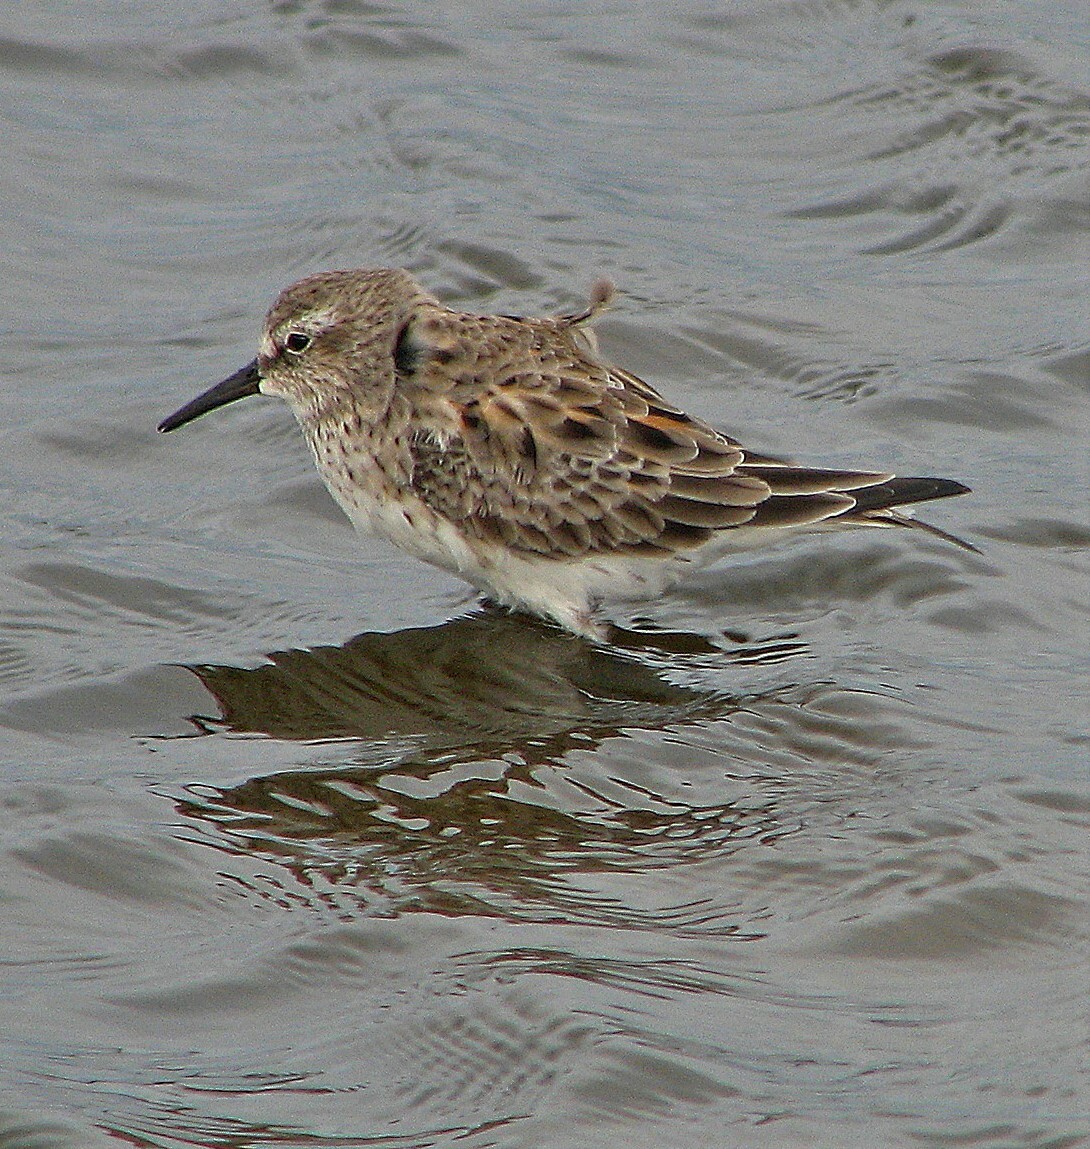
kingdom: Animalia
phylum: Chordata
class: Aves
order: Charadriiformes
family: Scolopacidae
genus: Calidris
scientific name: Calidris fuscicollis
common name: White-rumped sandpiper
